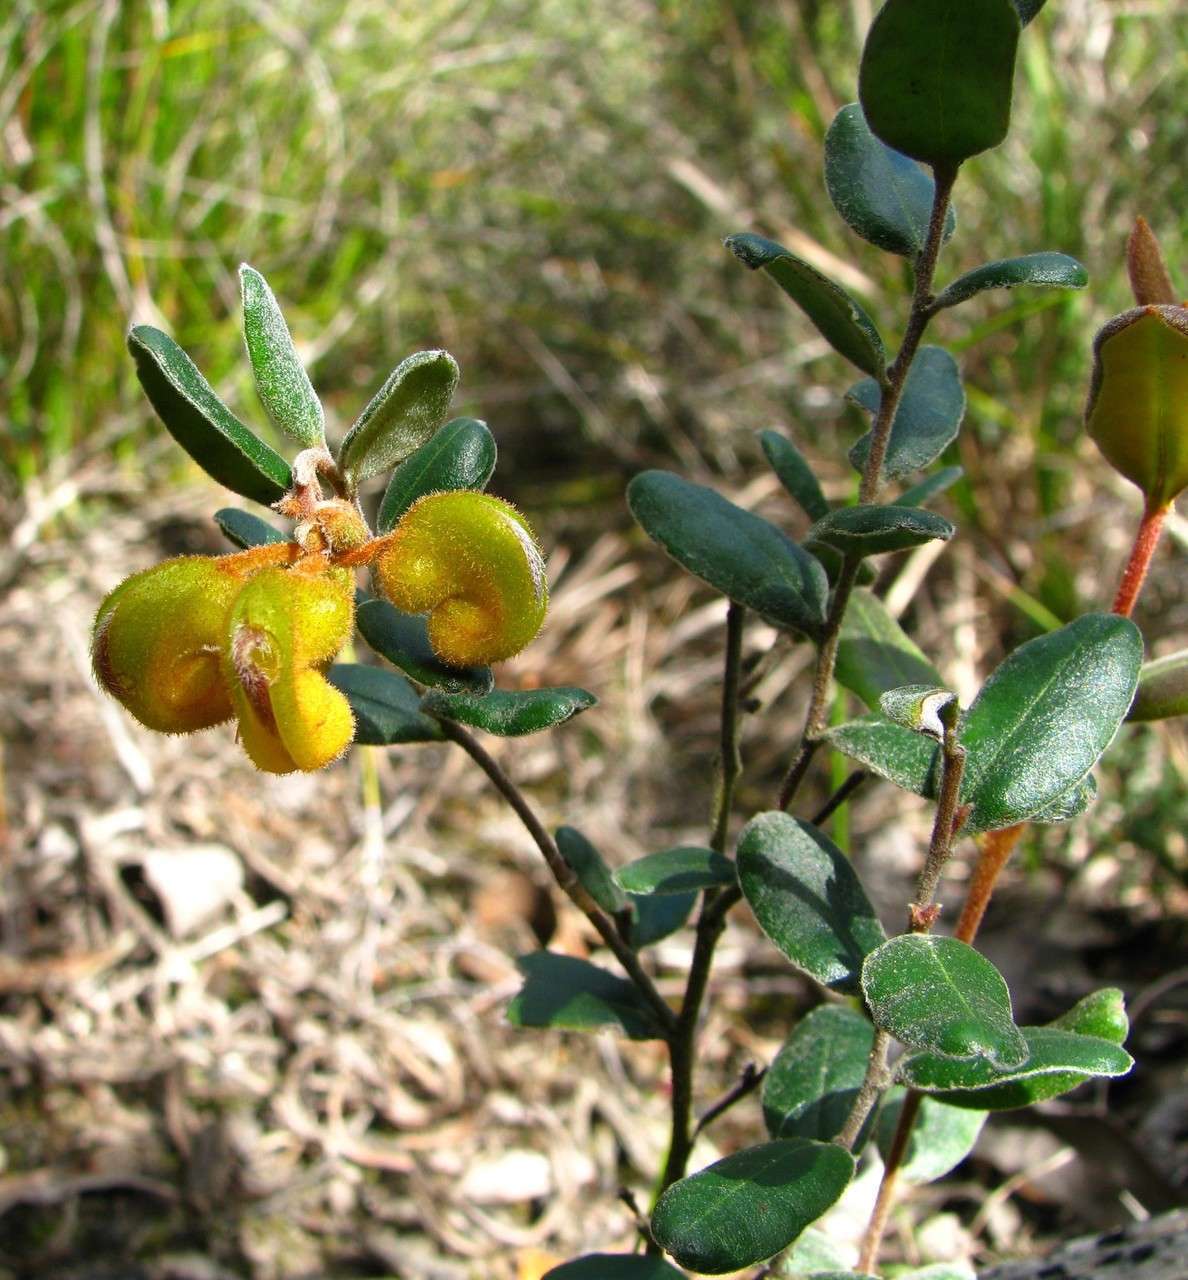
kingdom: Plantae
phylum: Tracheophyta
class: Magnoliopsida
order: Proteales
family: Proteaceae
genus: Grevillea
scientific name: Grevillea chrysophaea
